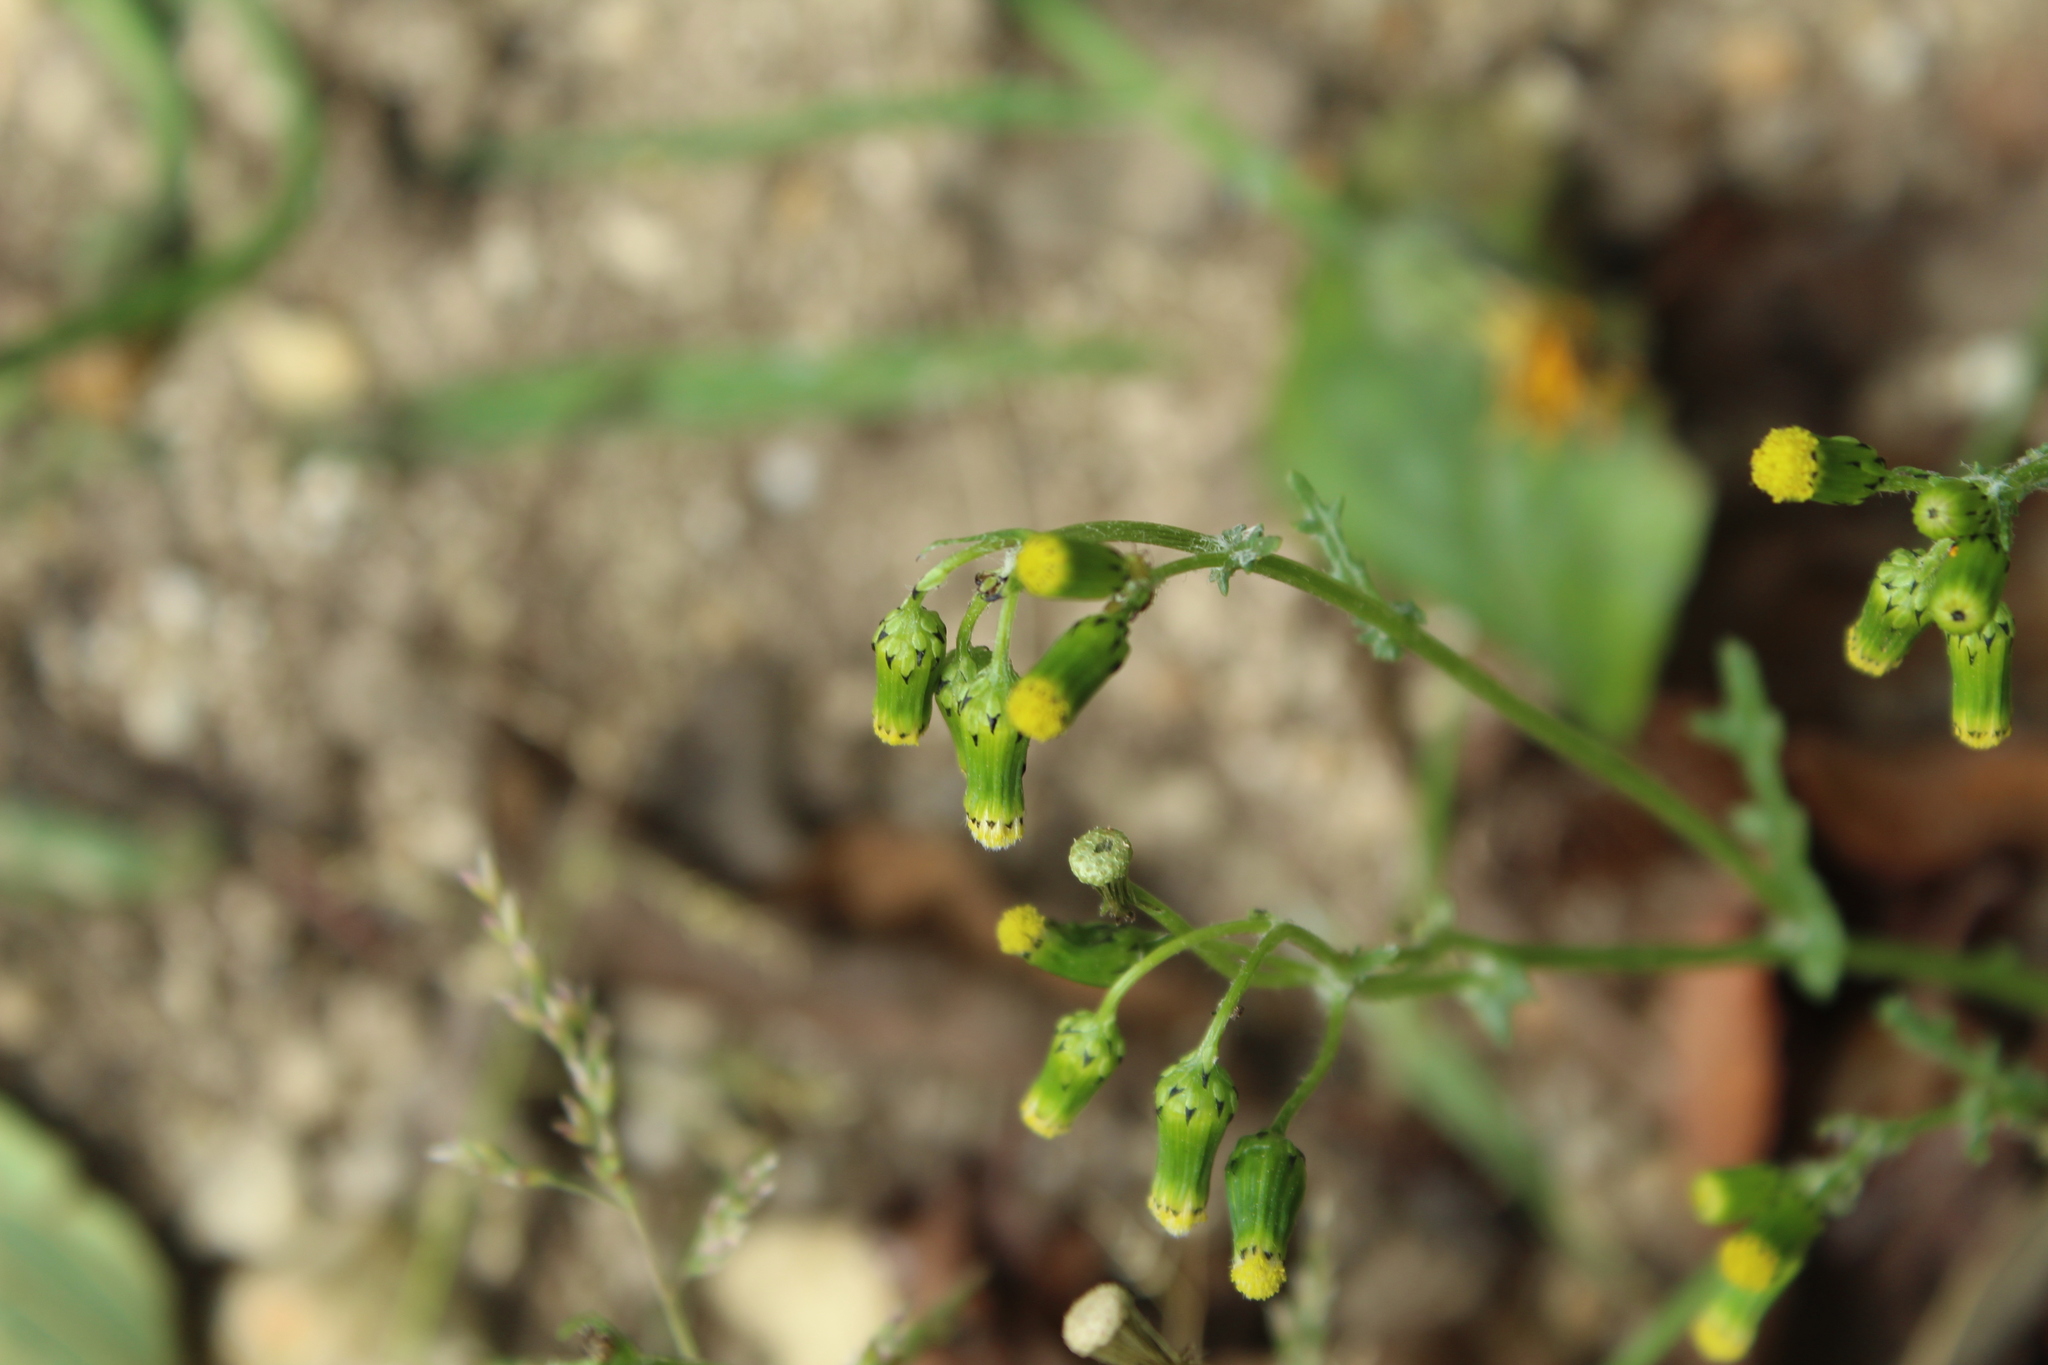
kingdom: Plantae
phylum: Tracheophyta
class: Magnoliopsida
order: Asterales
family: Asteraceae
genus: Senecio
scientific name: Senecio vulgaris
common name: Old-man-in-the-spring
